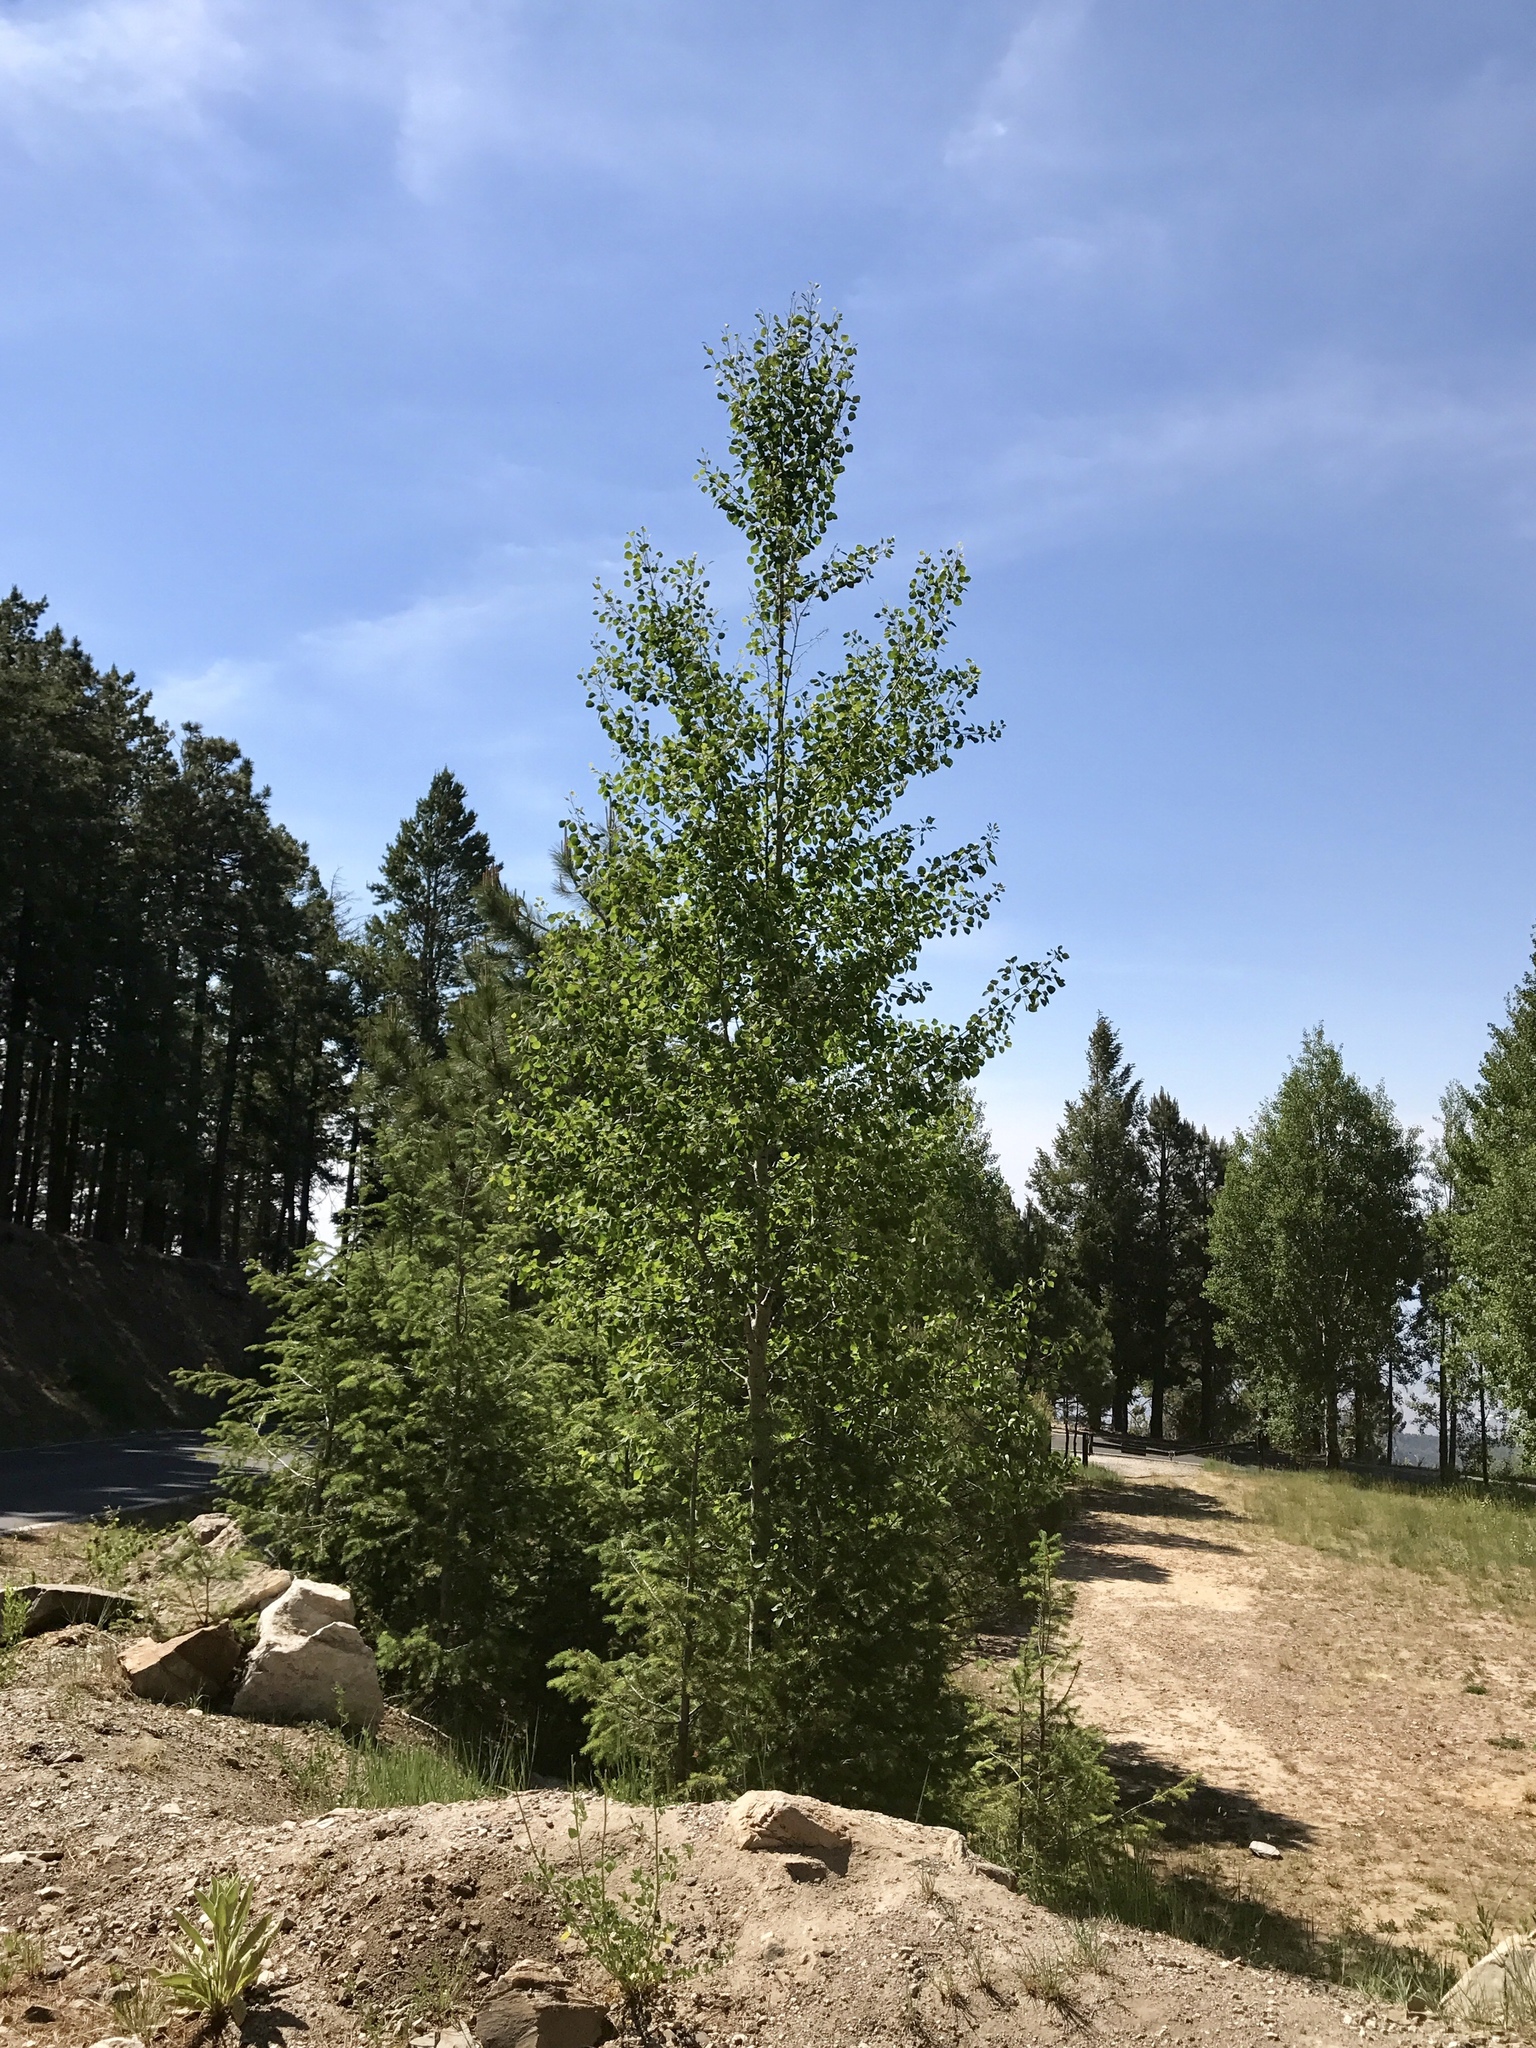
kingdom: Plantae
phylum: Tracheophyta
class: Magnoliopsida
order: Malpighiales
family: Salicaceae
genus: Populus
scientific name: Populus tremuloides
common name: Quaking aspen
